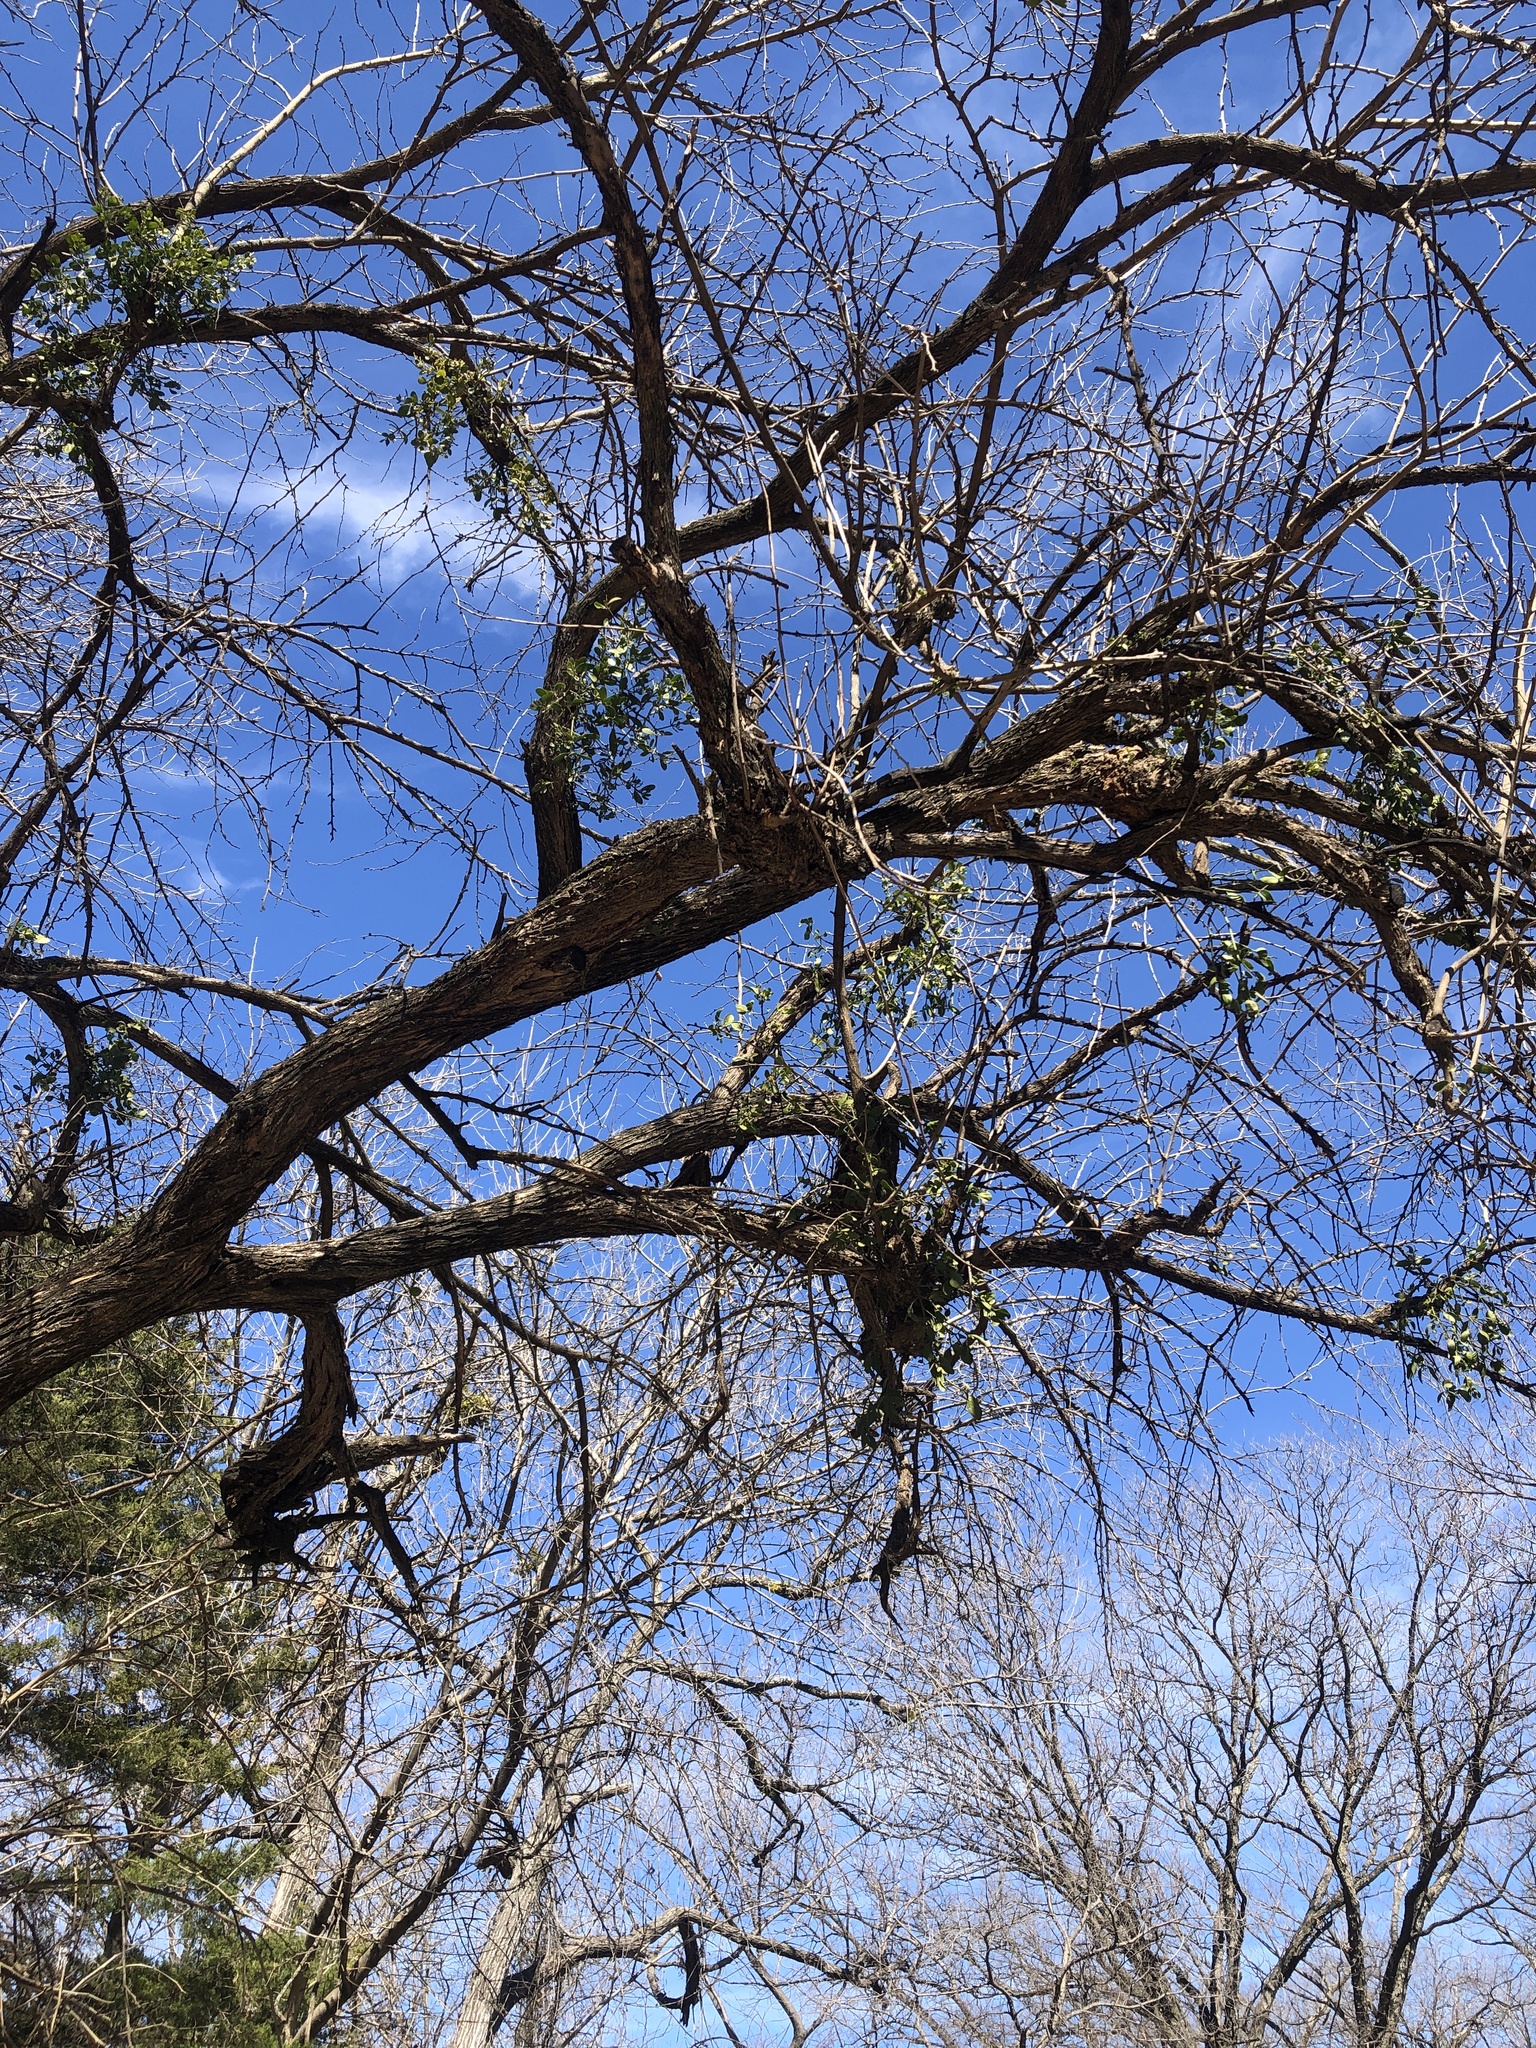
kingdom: Plantae
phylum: Tracheophyta
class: Magnoliopsida
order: Santalales
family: Viscaceae
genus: Phoradendron
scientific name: Phoradendron leucarpum
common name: Pacific mistletoe
